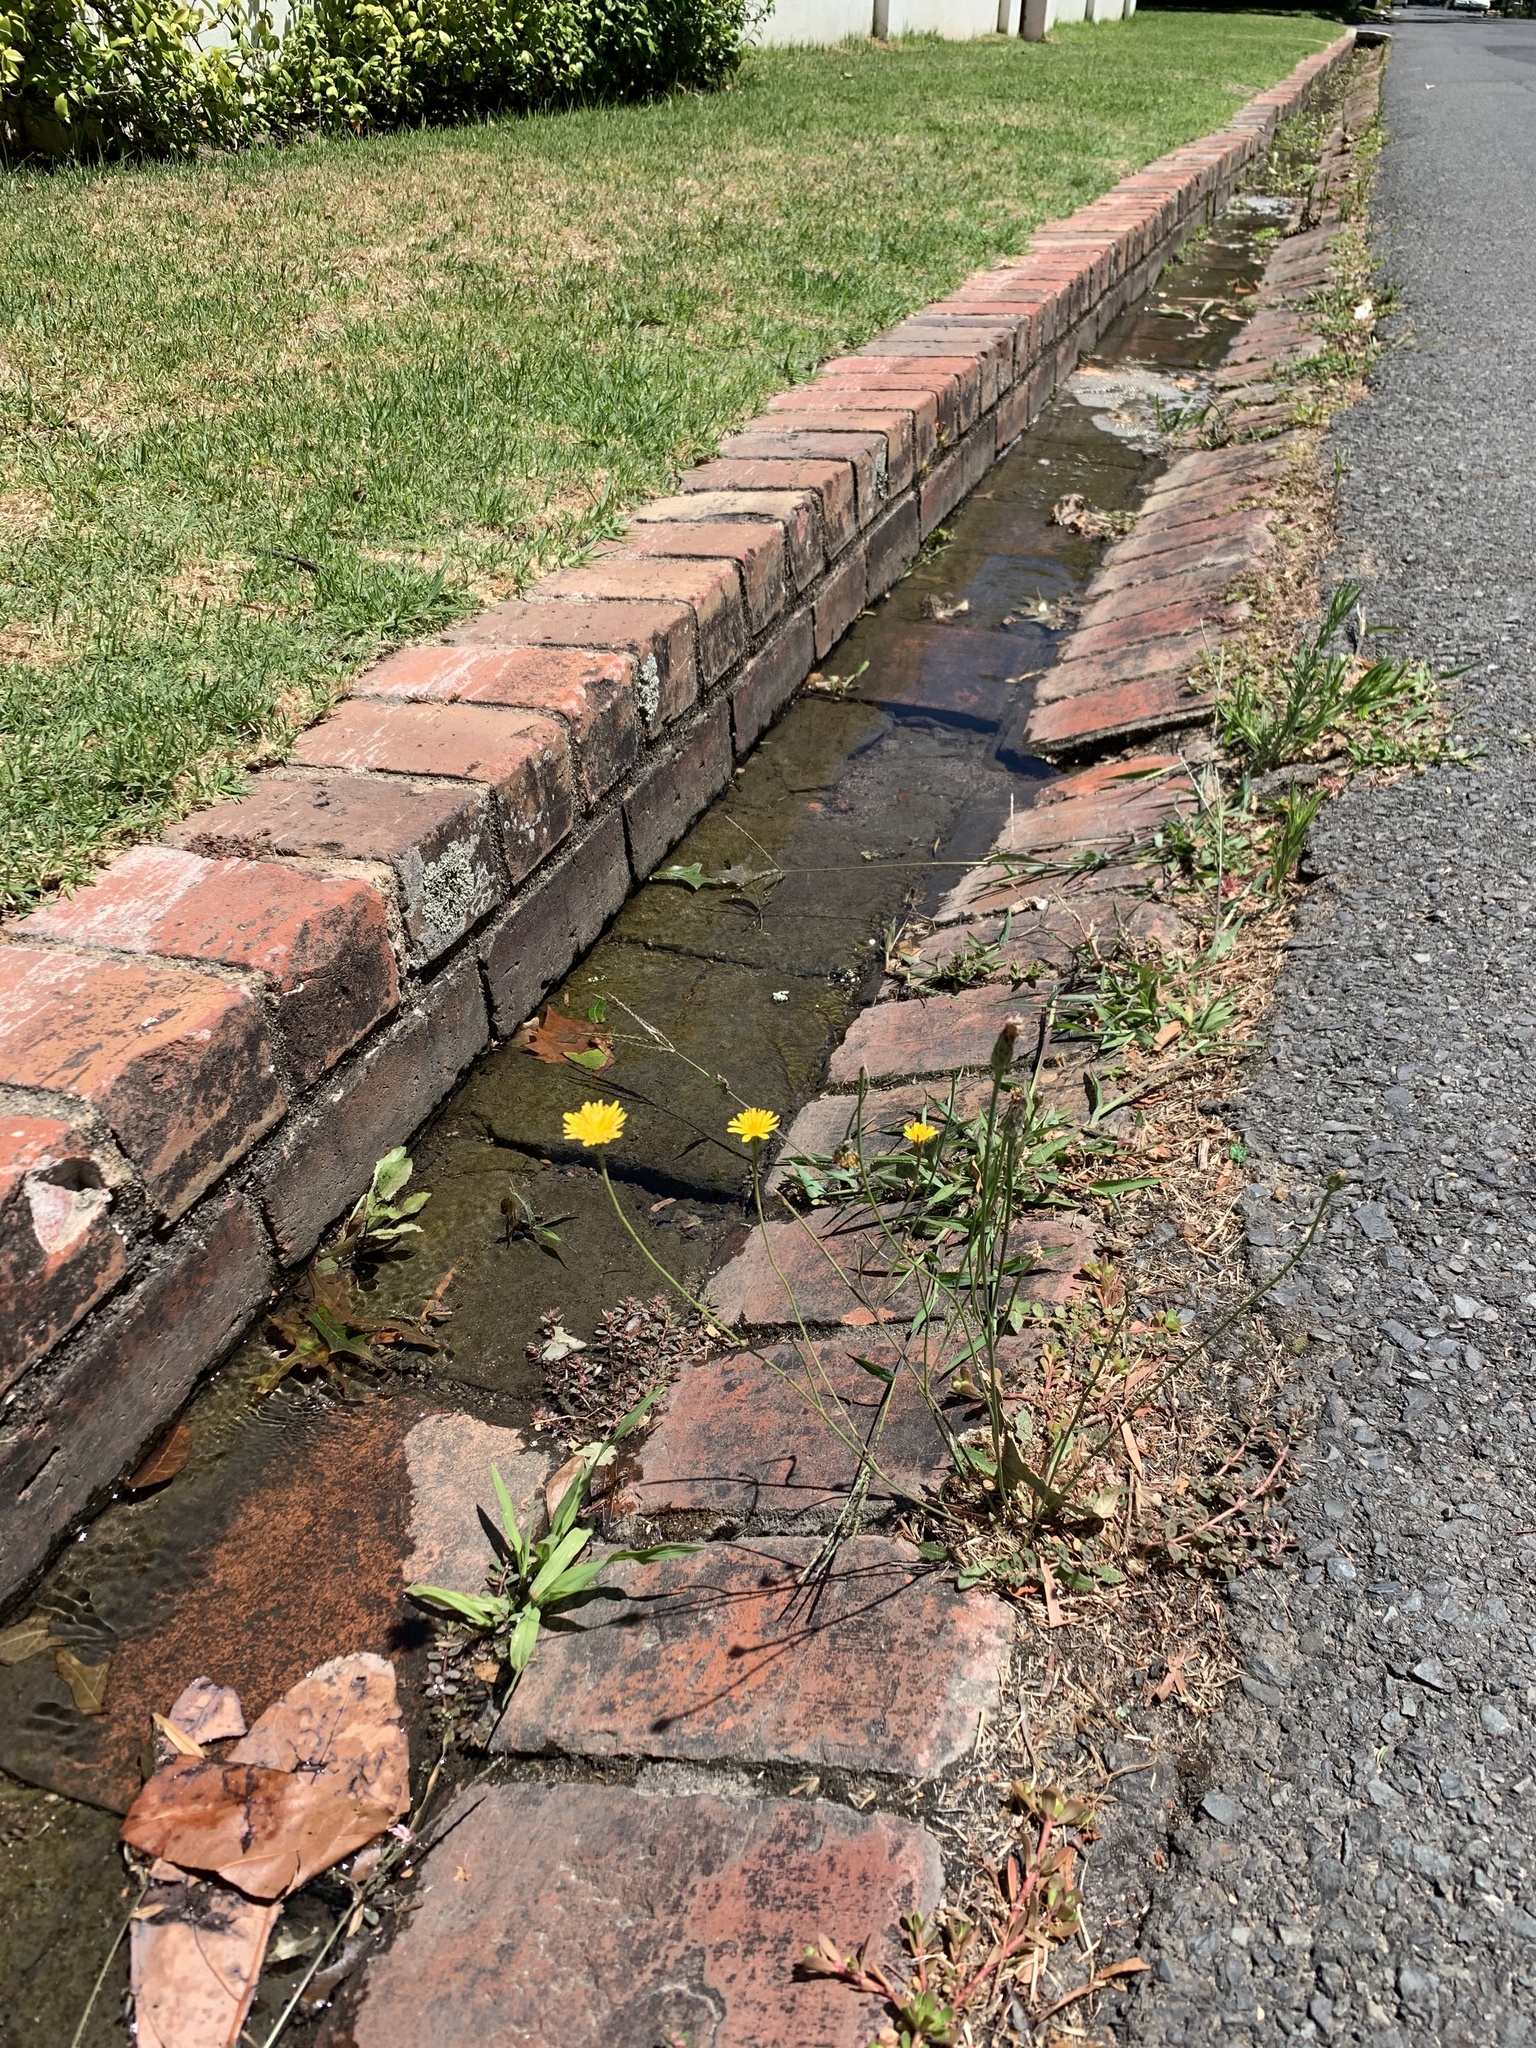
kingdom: Plantae
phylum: Tracheophyta
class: Magnoliopsida
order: Asterales
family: Asteraceae
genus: Hypochaeris
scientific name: Hypochaeris radicata
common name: Flatweed
